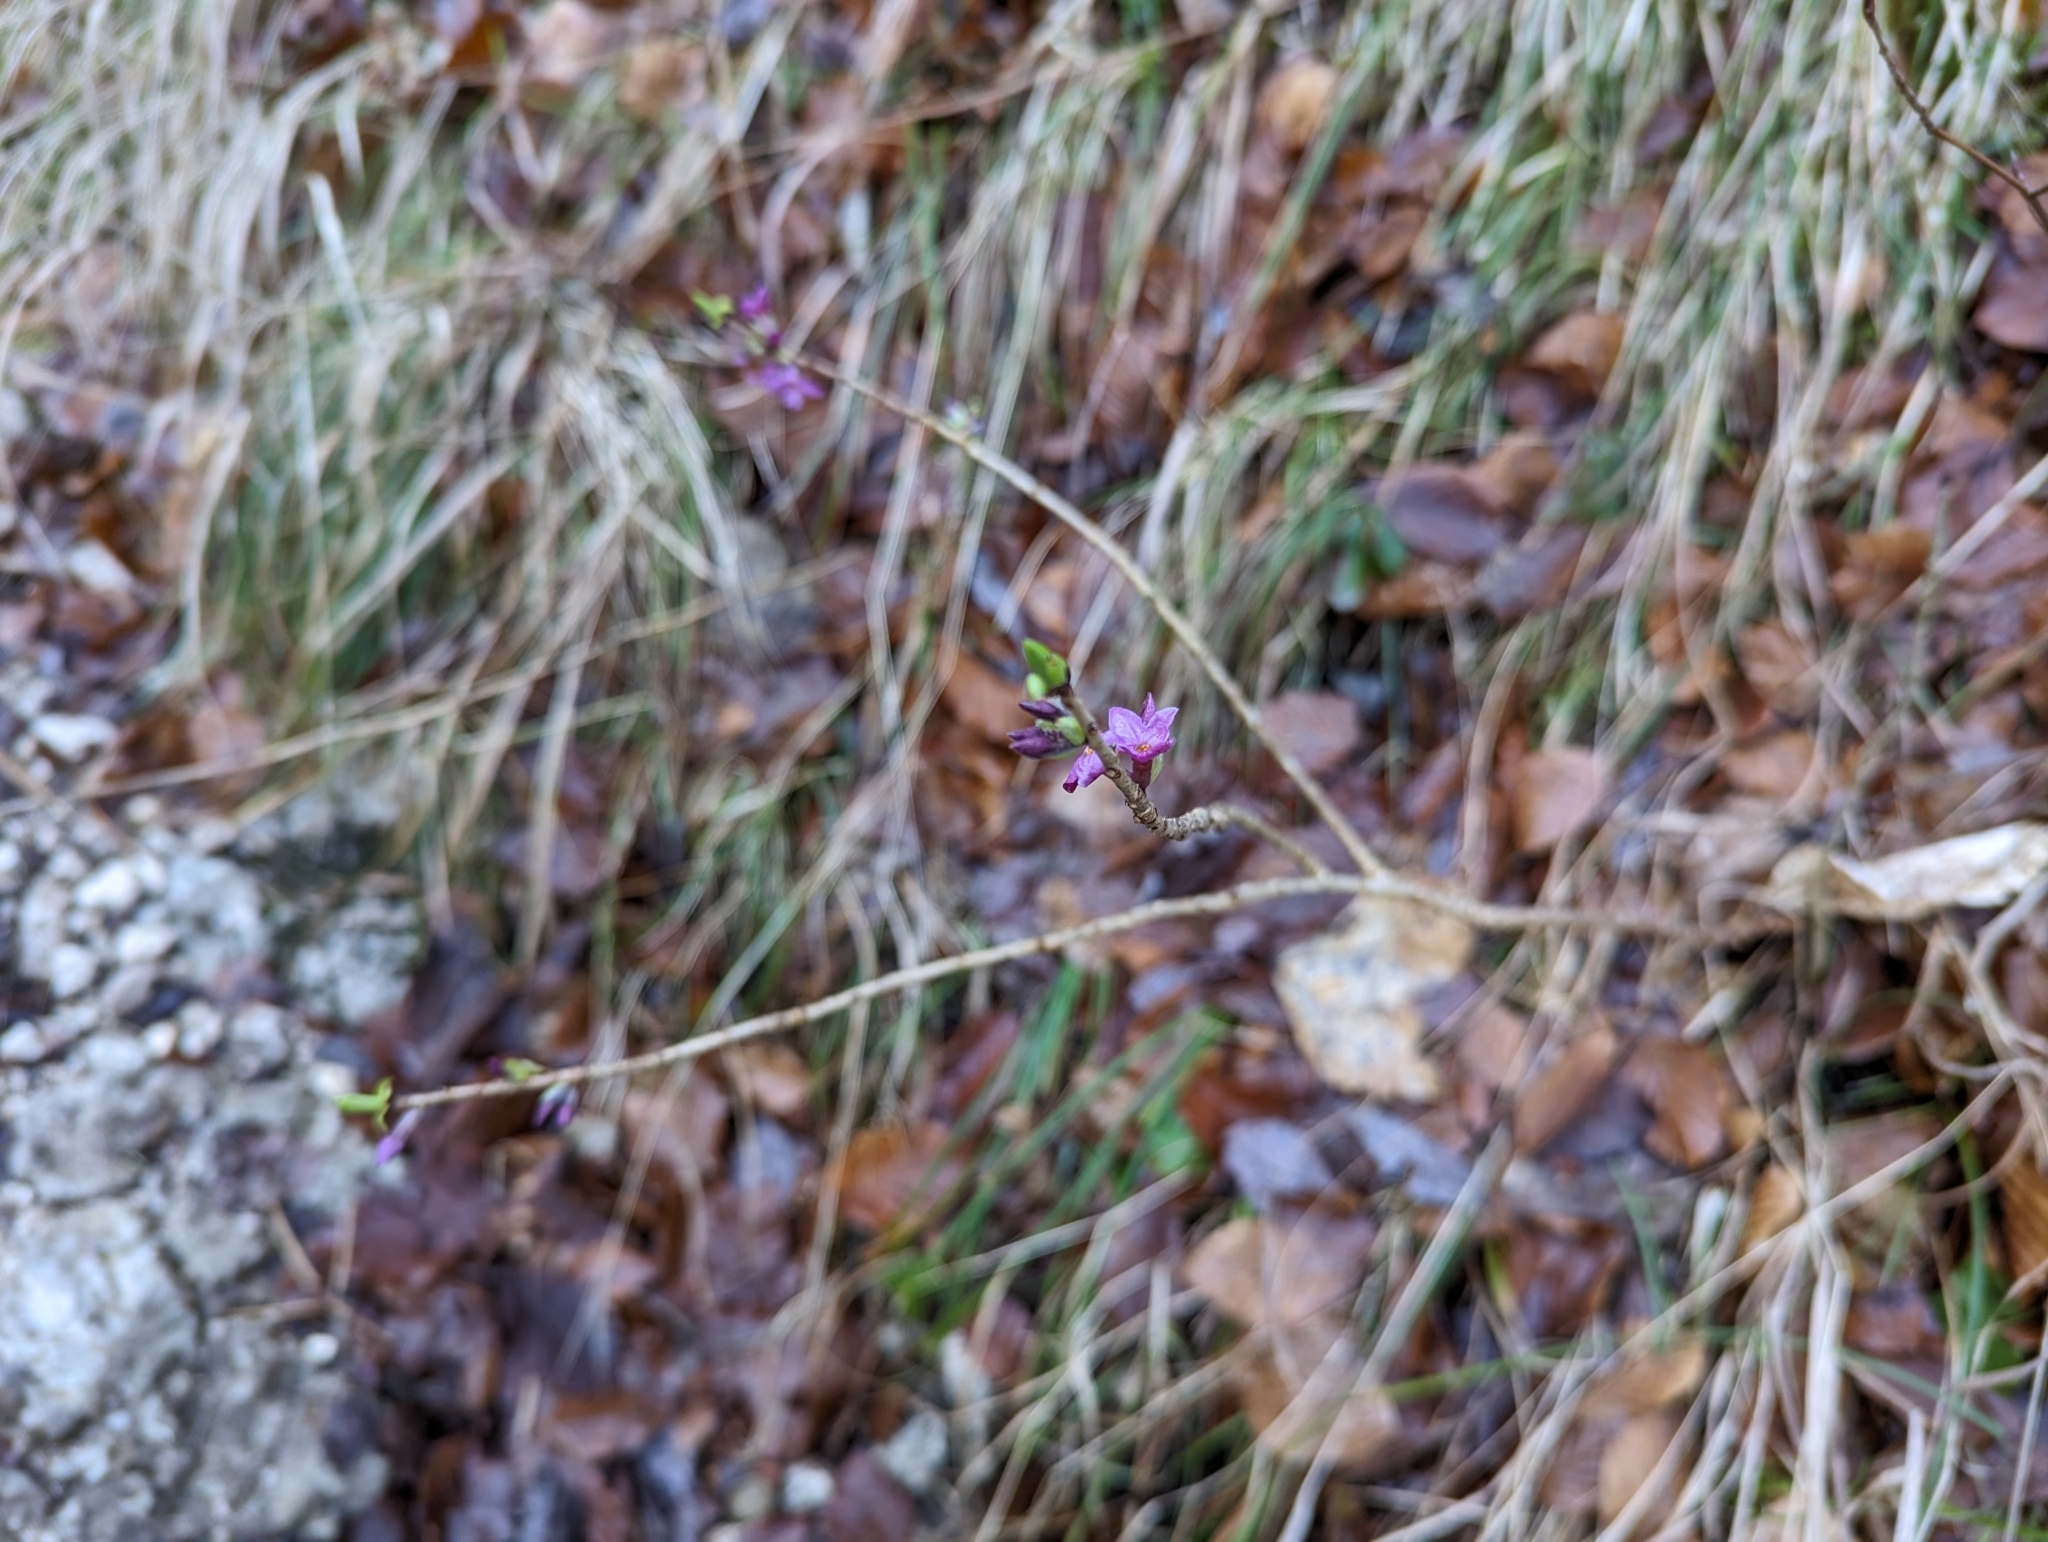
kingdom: Plantae
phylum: Tracheophyta
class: Magnoliopsida
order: Malvales
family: Thymelaeaceae
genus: Daphne
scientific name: Daphne mezereum
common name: Mezereon
